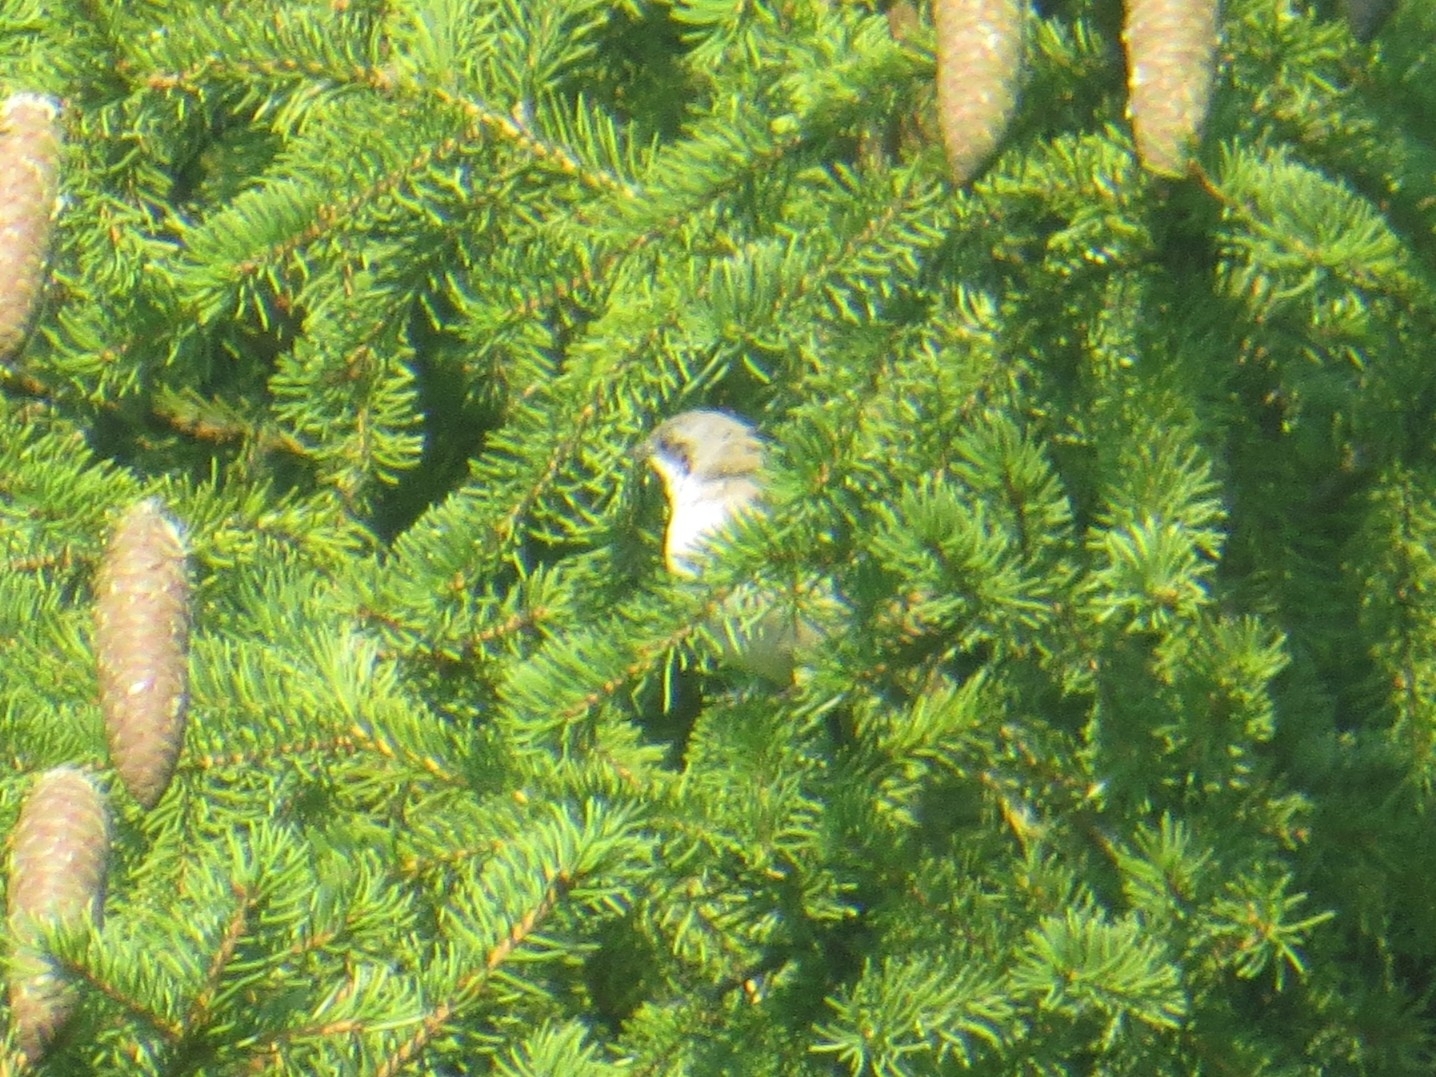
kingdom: Animalia
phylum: Chordata
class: Aves
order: Passeriformes
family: Sylviidae
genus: Sylvia
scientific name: Sylvia curruca
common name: Lesser whitethroat
